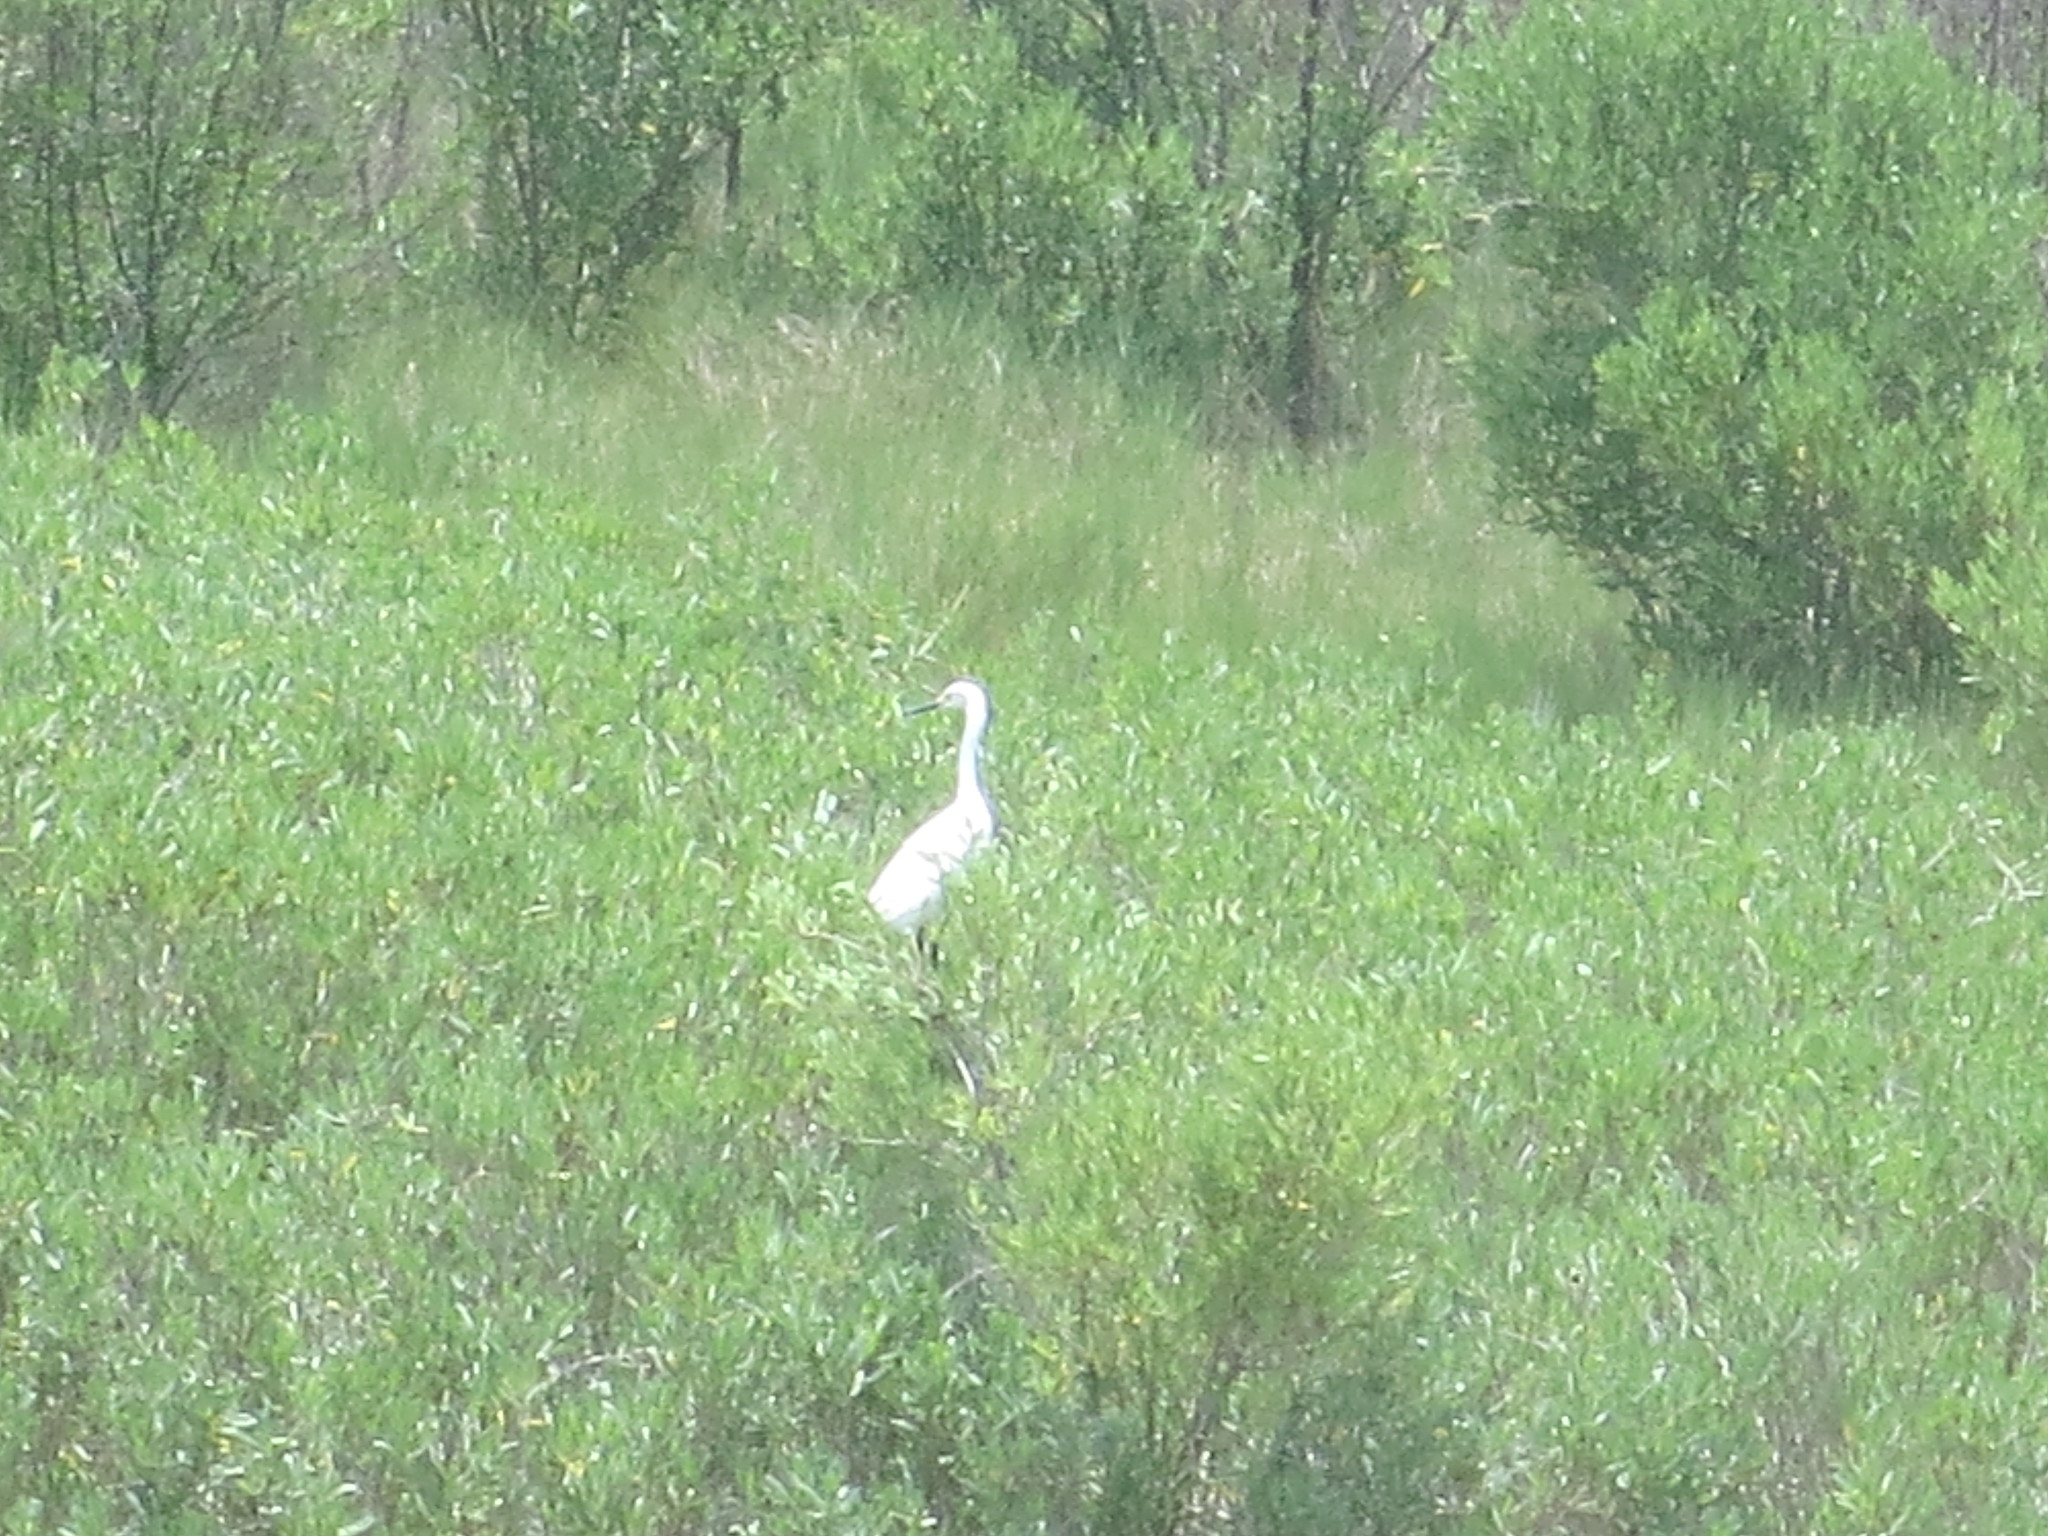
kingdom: Animalia
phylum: Chordata
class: Aves
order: Pelecaniformes
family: Ardeidae
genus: Egretta
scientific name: Egretta thula
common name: Snowy egret
